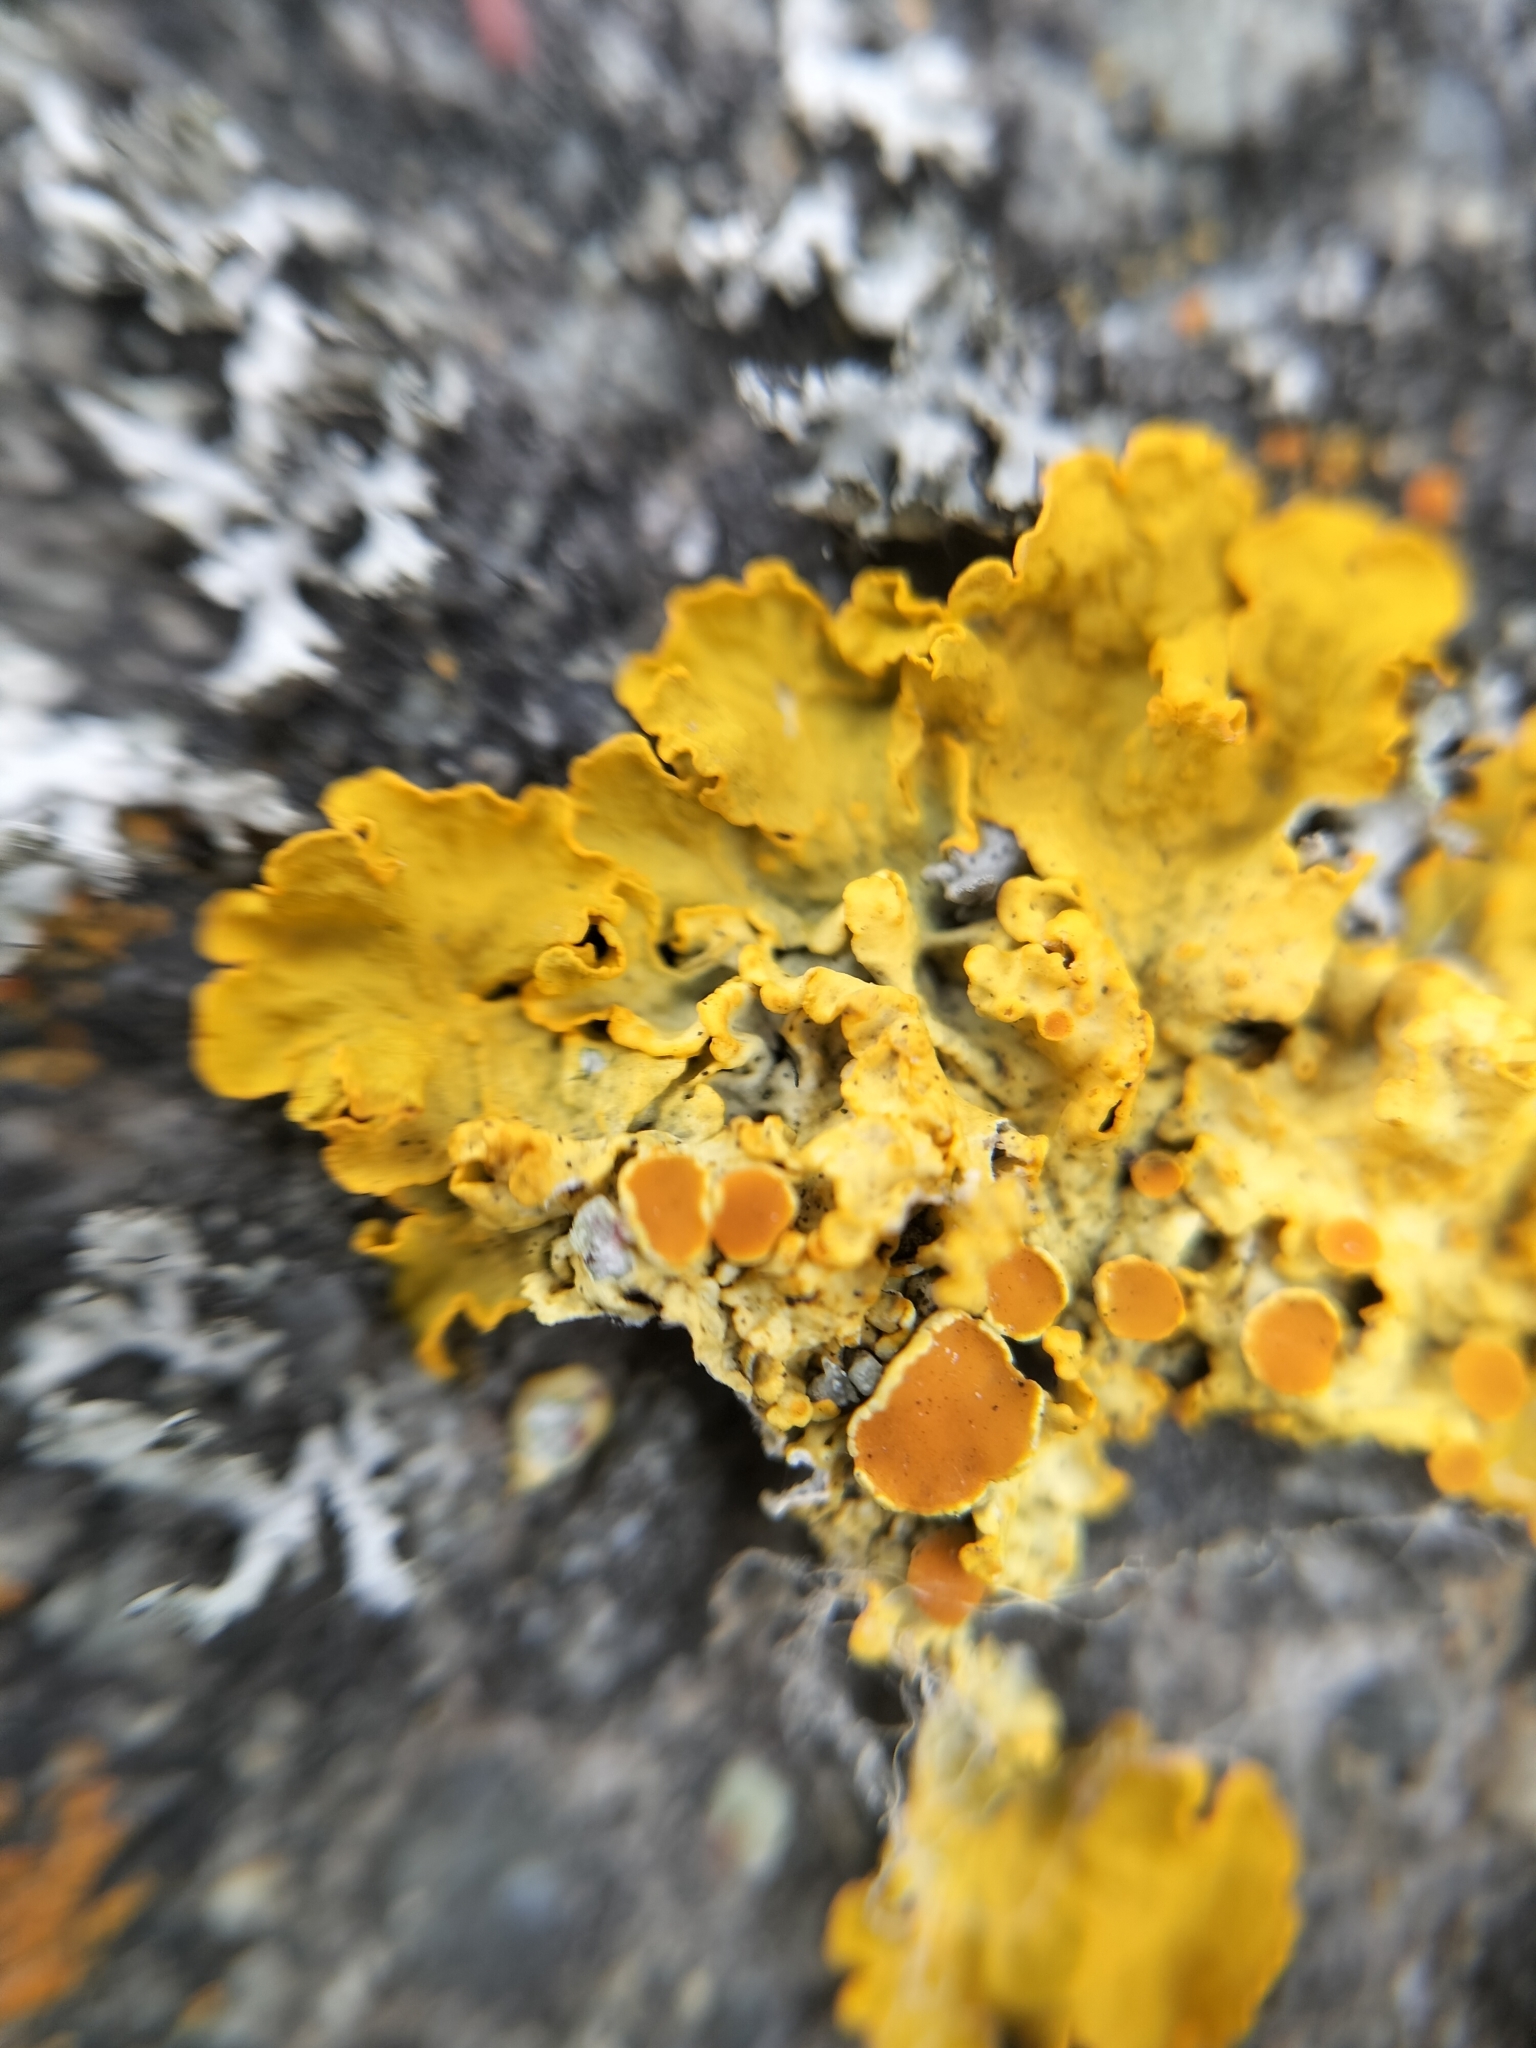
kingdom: Fungi
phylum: Ascomycota
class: Lecanoromycetes
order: Teloschistales
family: Teloschistaceae
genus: Xanthoria
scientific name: Xanthoria parietina
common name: Common orange lichen
